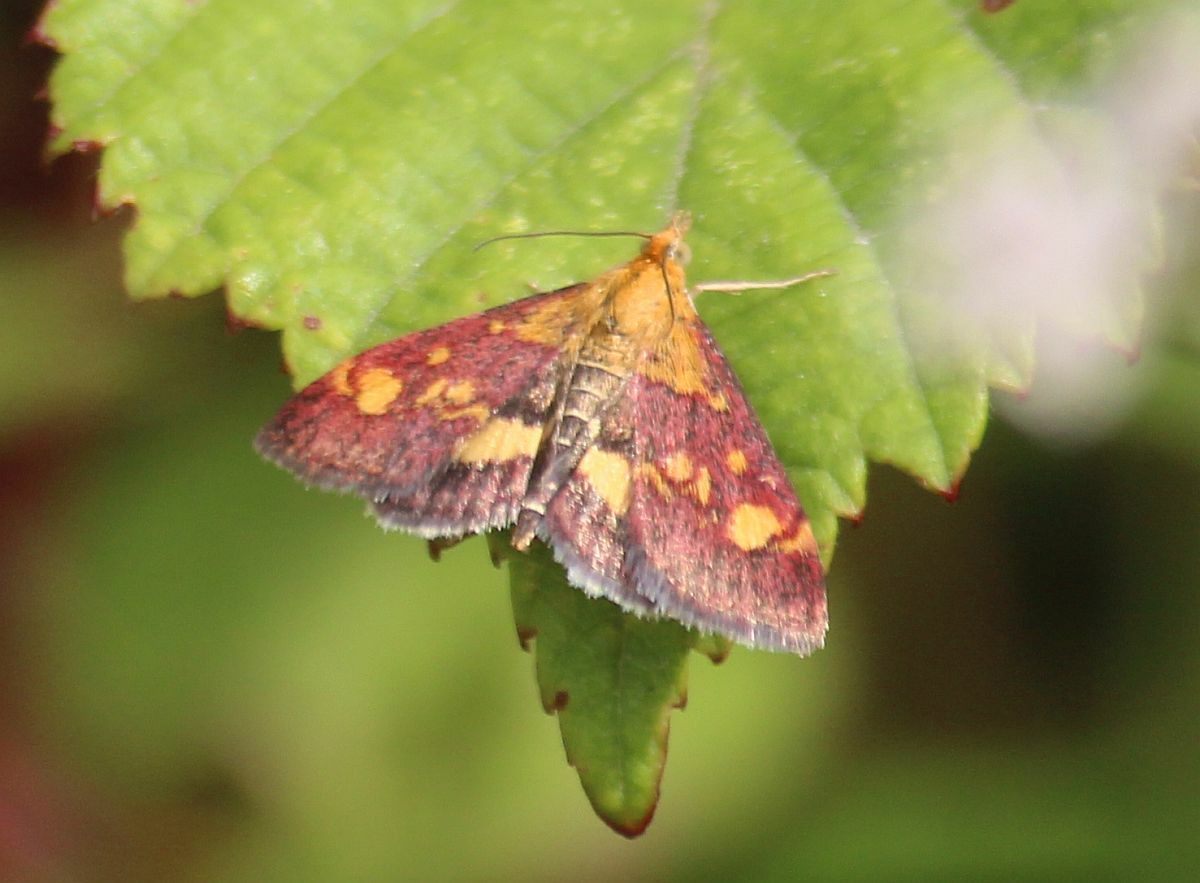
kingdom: Animalia
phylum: Arthropoda
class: Insecta
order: Lepidoptera
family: Crambidae
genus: Pyrausta
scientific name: Pyrausta aurata
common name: Small purple & gold
